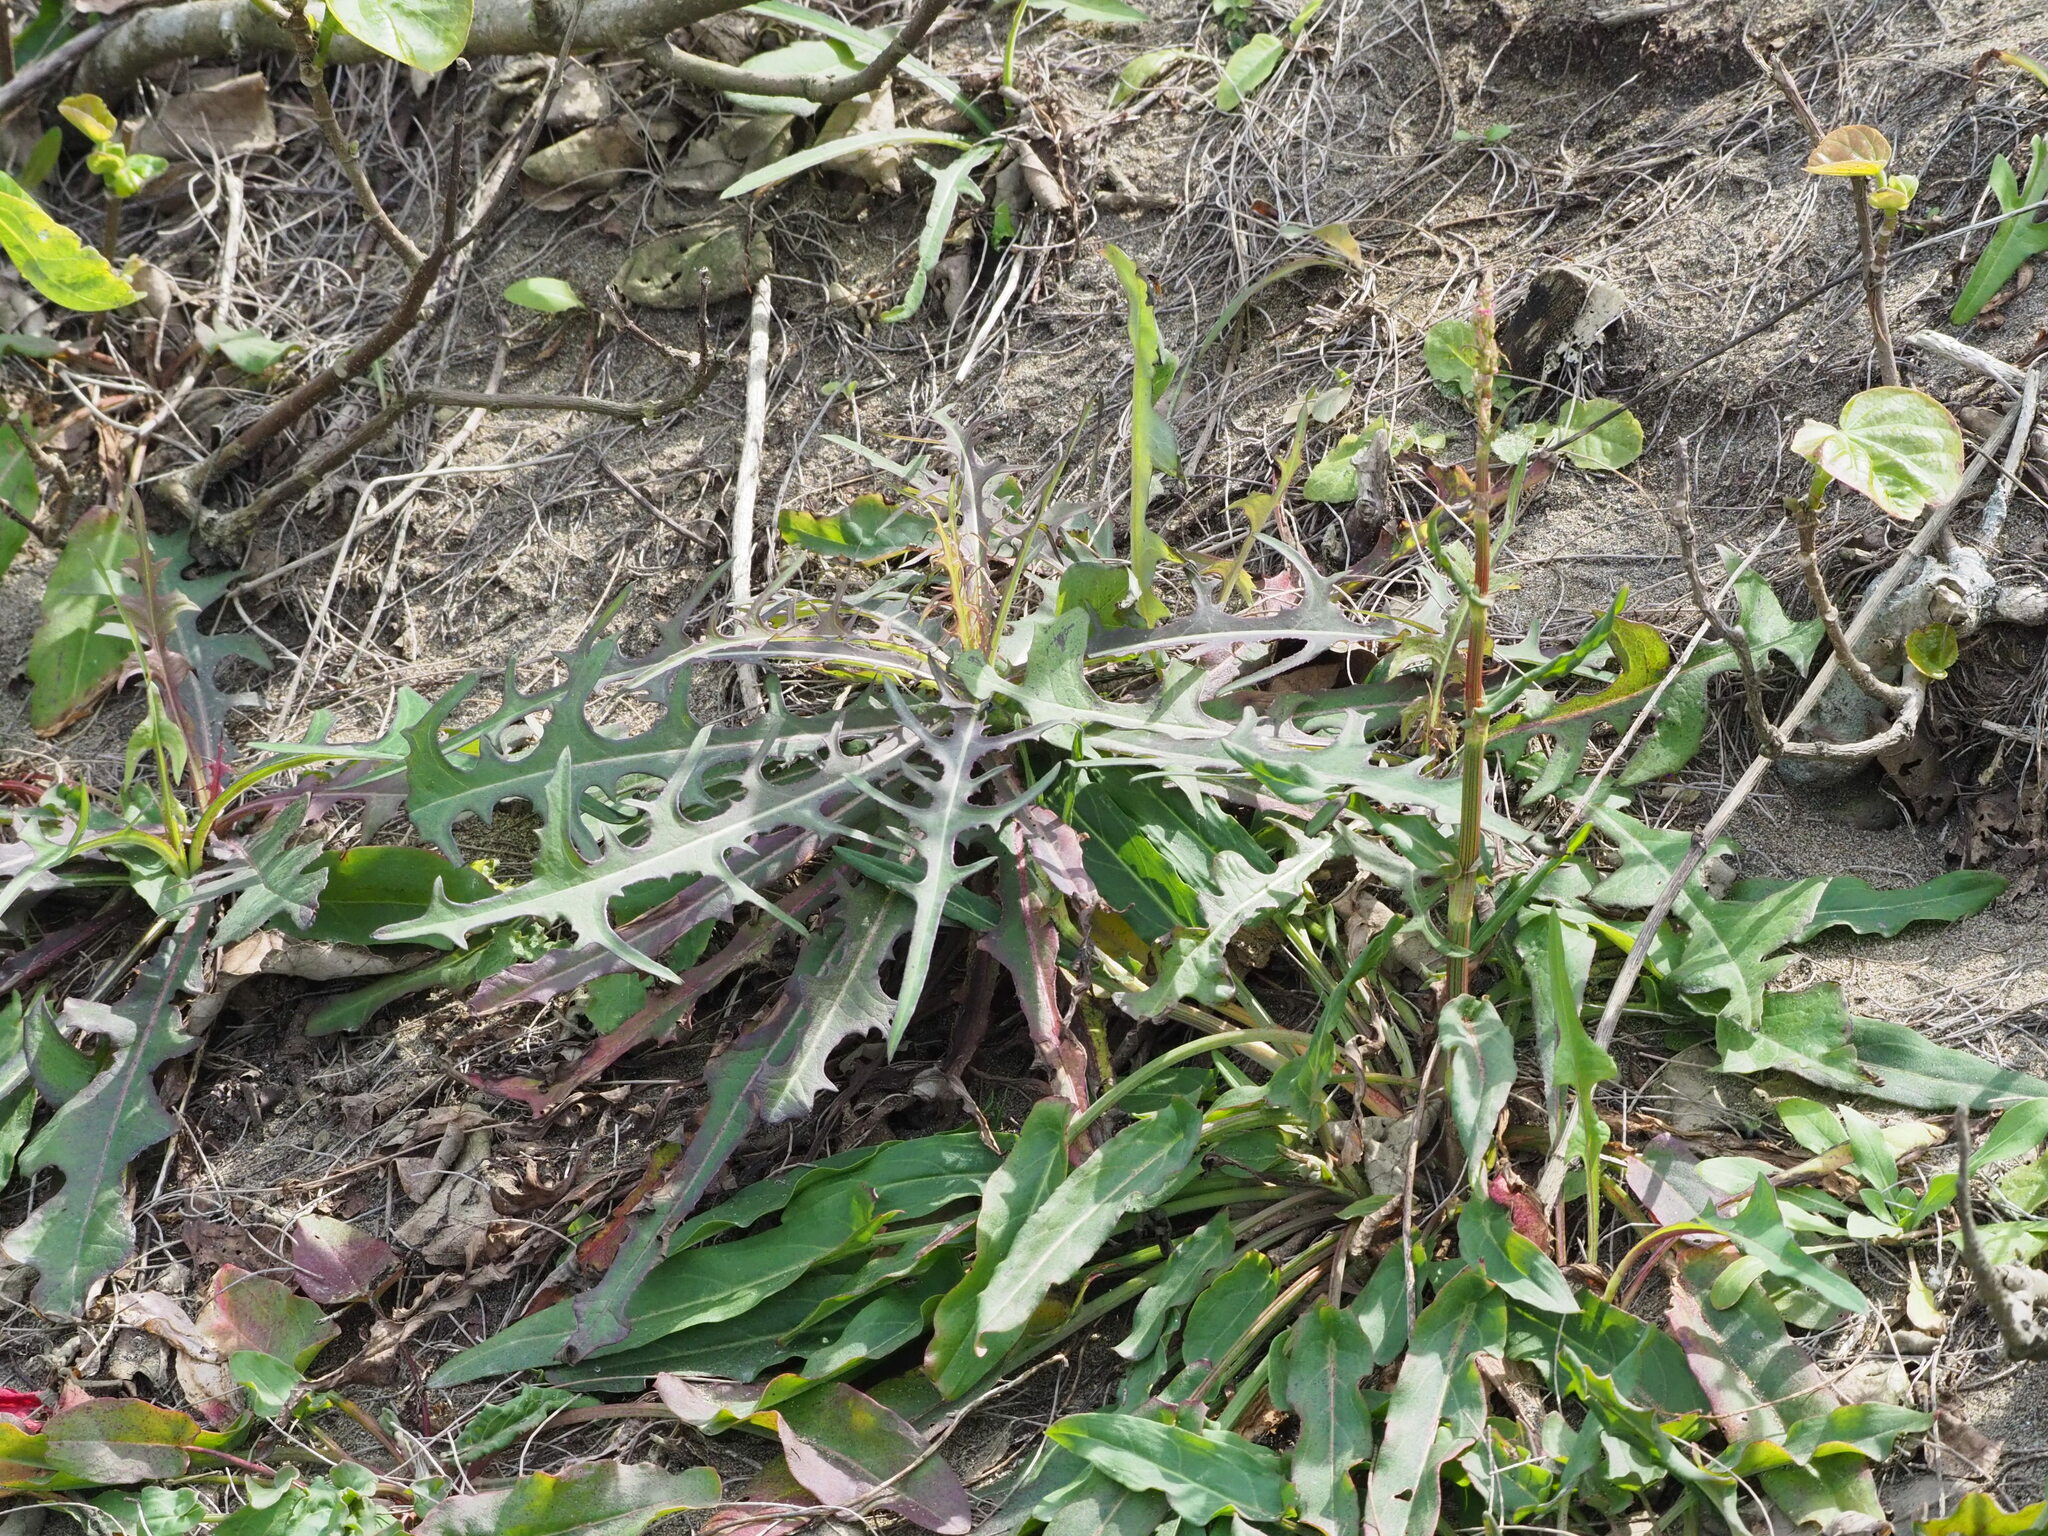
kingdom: Plantae
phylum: Tracheophyta
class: Magnoliopsida
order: Asterales
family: Asteraceae
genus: Lactuca
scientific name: Lactuca indica
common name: Wild lettuce
